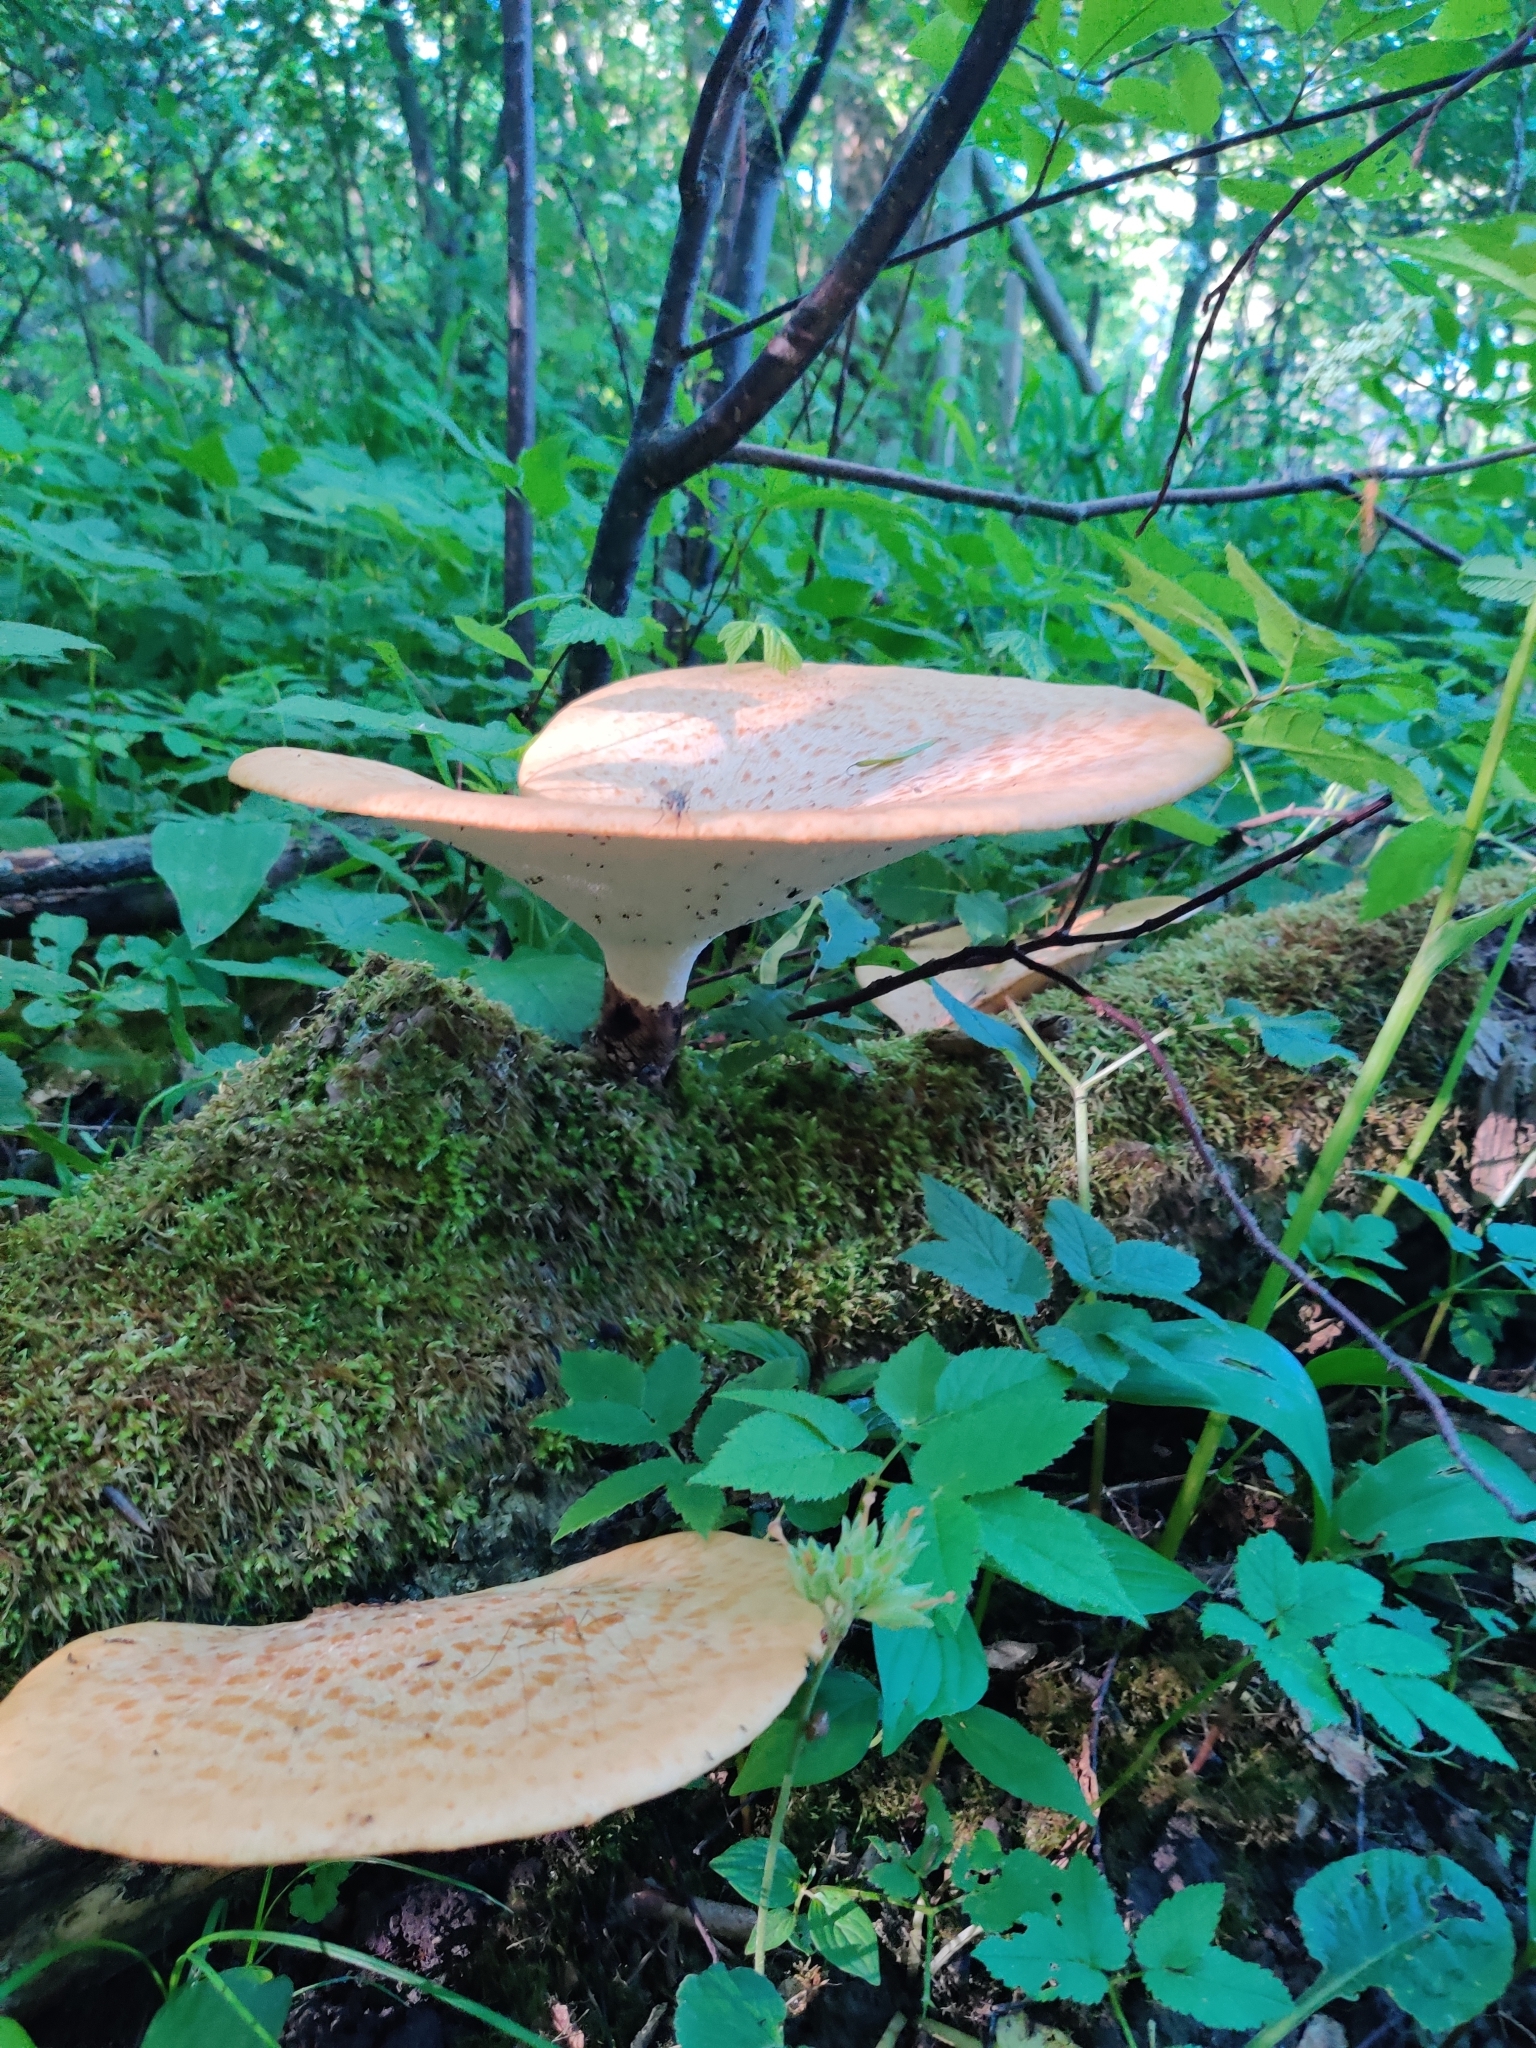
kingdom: Fungi
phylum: Basidiomycota
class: Agaricomycetes
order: Polyporales
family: Polyporaceae
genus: Cerioporus
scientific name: Cerioporus squamosus
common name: Dryad's saddle
